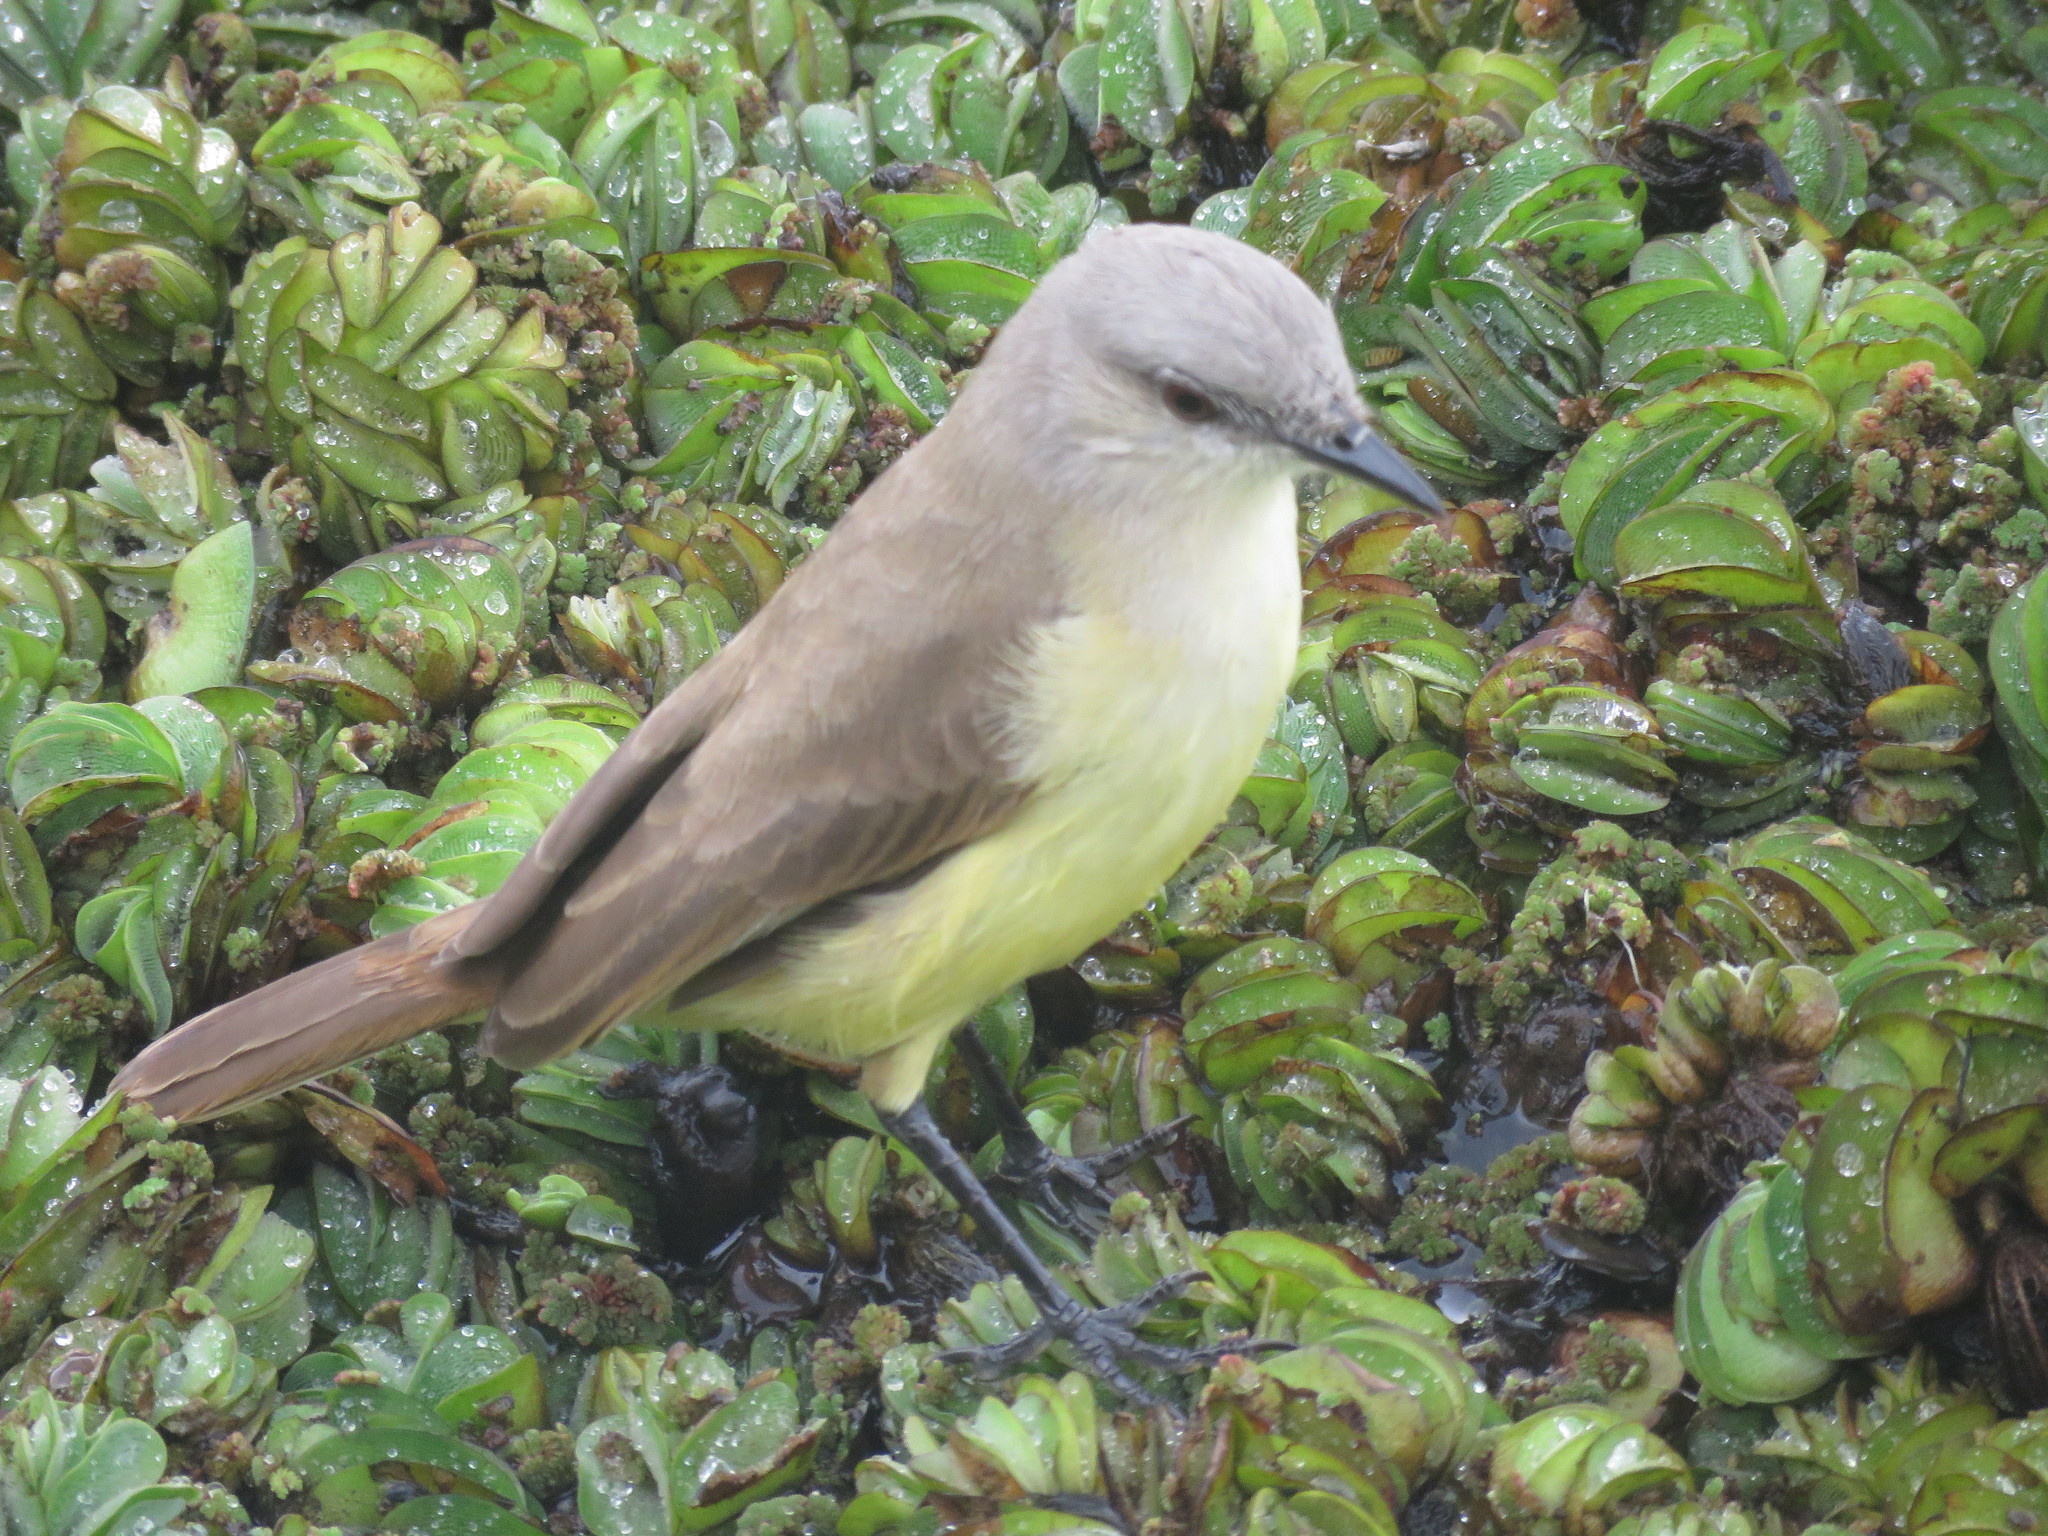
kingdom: Animalia
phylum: Chordata
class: Aves
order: Passeriformes
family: Tyrannidae
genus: Machetornis
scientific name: Machetornis rixosa
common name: Cattle tyrant
